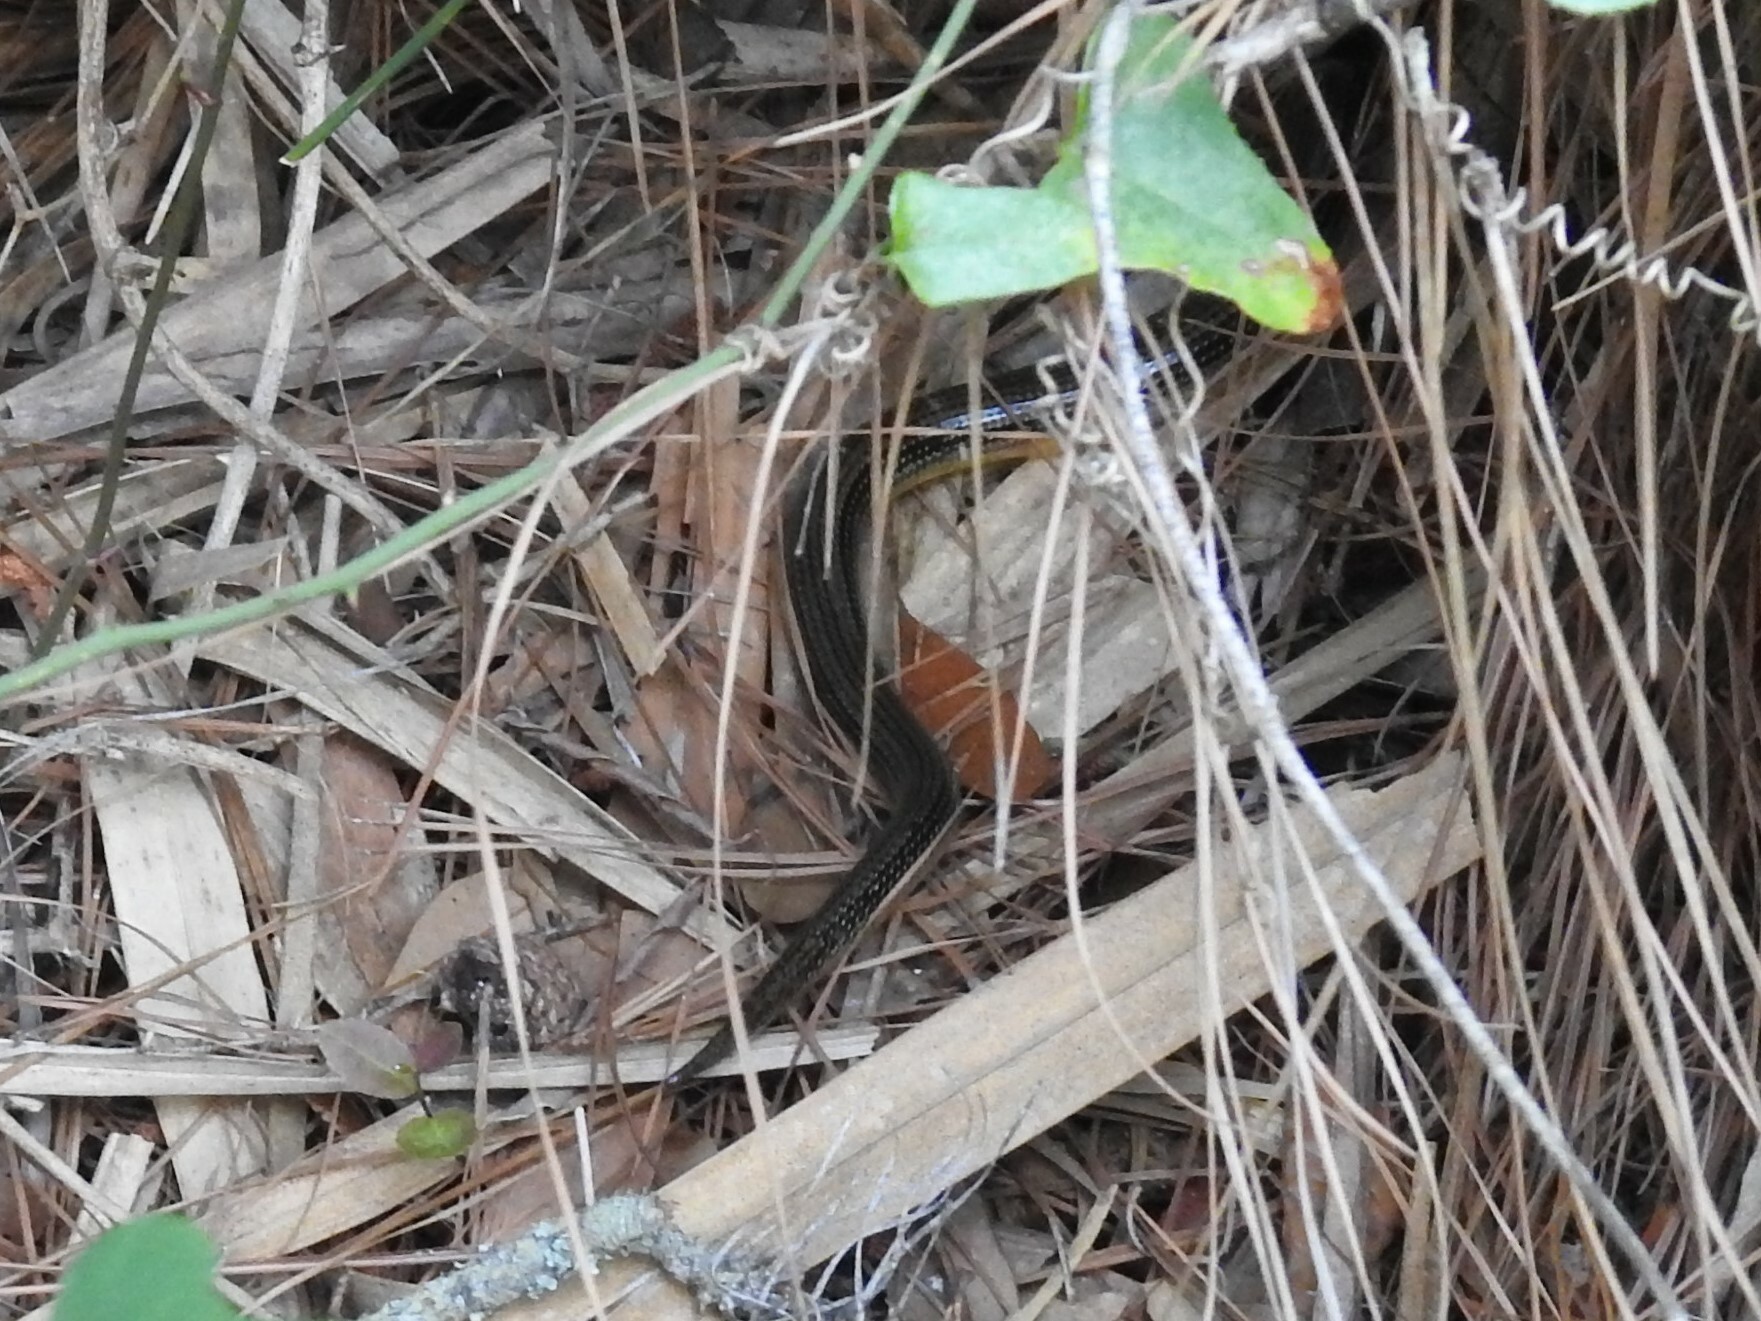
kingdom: Animalia
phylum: Chordata
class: Squamata
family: Anguidae
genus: Ophisaurus
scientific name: Ophisaurus ventralis
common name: Eastern glass lizard
